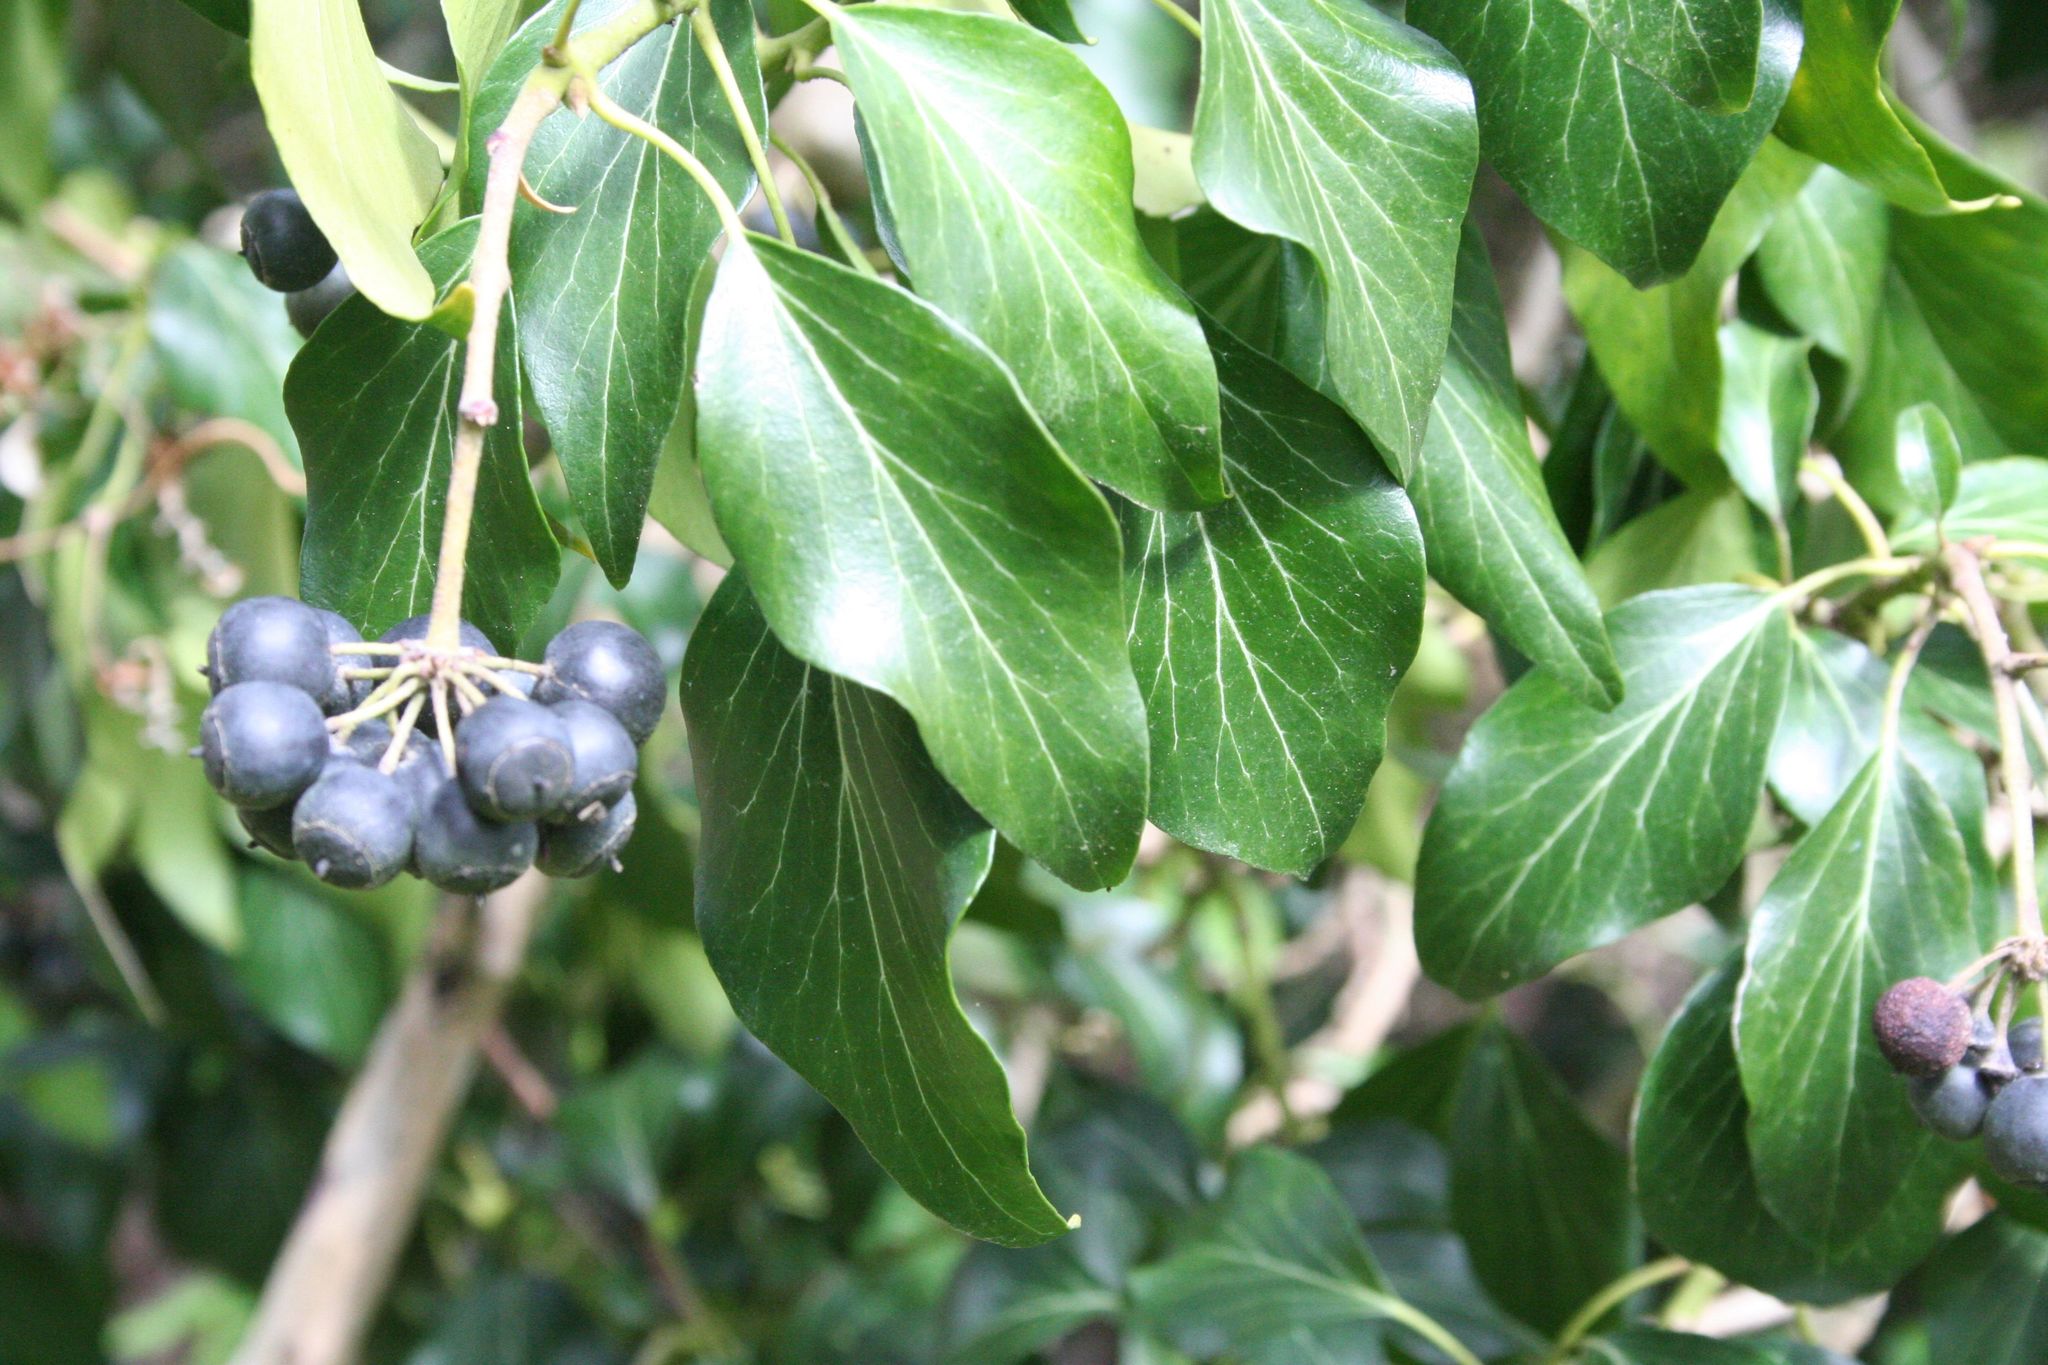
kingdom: Plantae
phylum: Tracheophyta
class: Magnoliopsida
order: Apiales
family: Araliaceae
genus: Hedera
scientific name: Hedera helix
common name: Ivy
